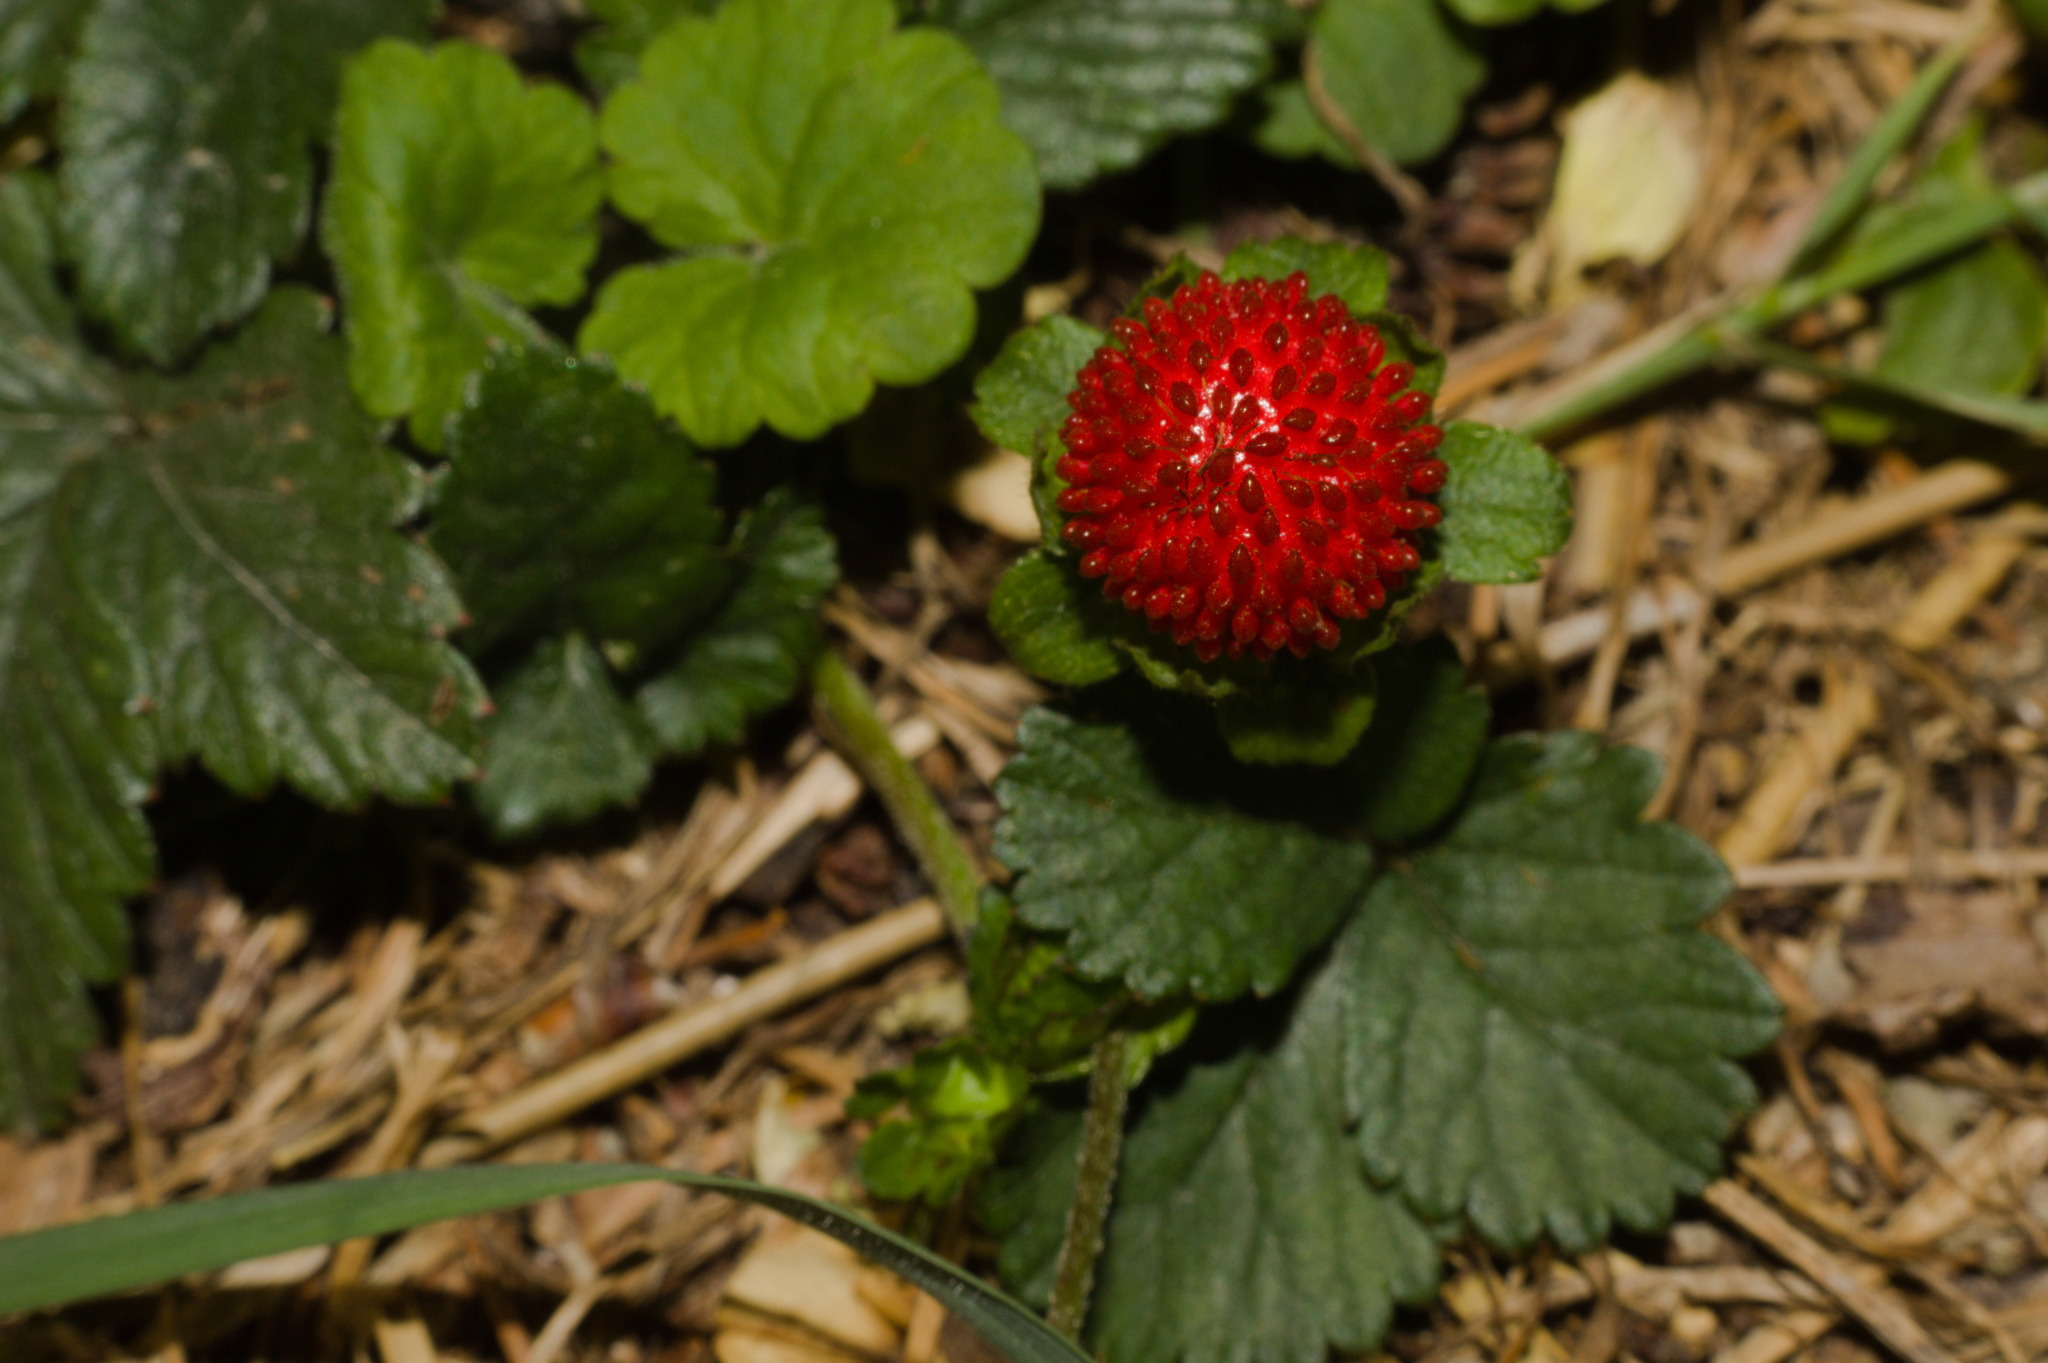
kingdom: Plantae
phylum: Tracheophyta
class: Magnoliopsida
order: Rosales
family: Rosaceae
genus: Potentilla
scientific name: Potentilla indica
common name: Yellow-flowered strawberry
